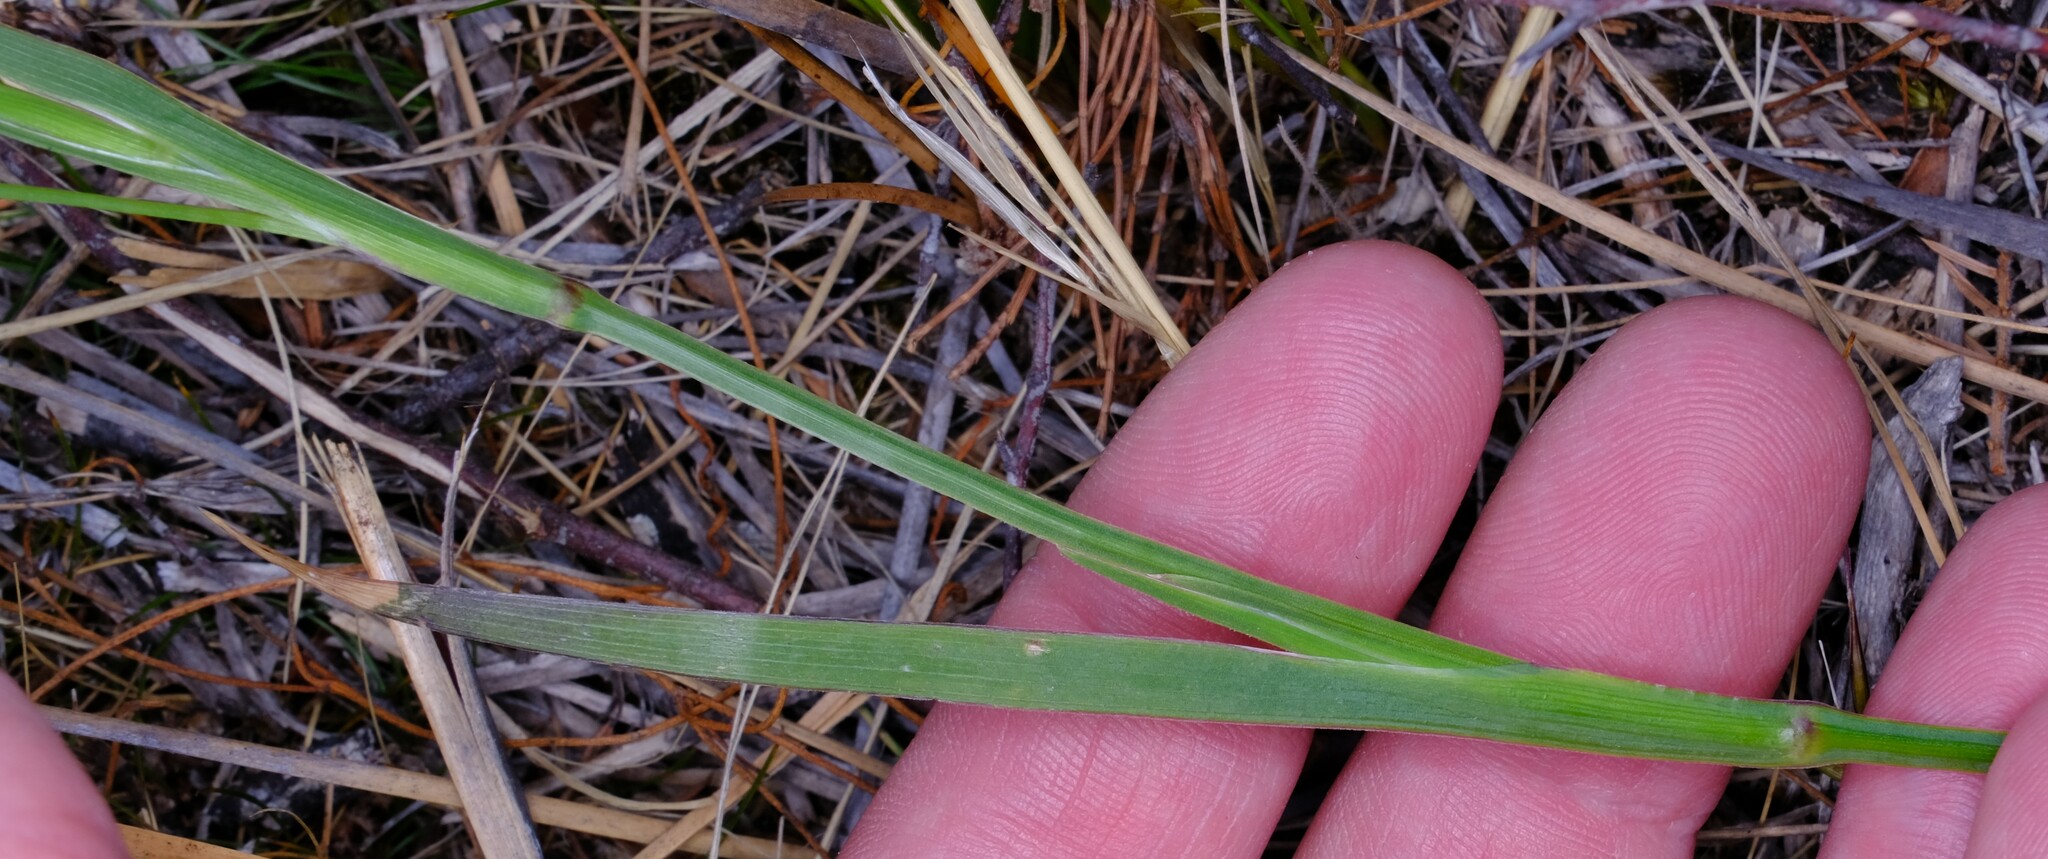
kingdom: Plantae
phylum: Tracheophyta
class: Liliopsida
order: Asparagales
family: Iridaceae
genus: Sisyrinchium
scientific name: Sisyrinchium micranthum
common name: Bermuda pigroot
